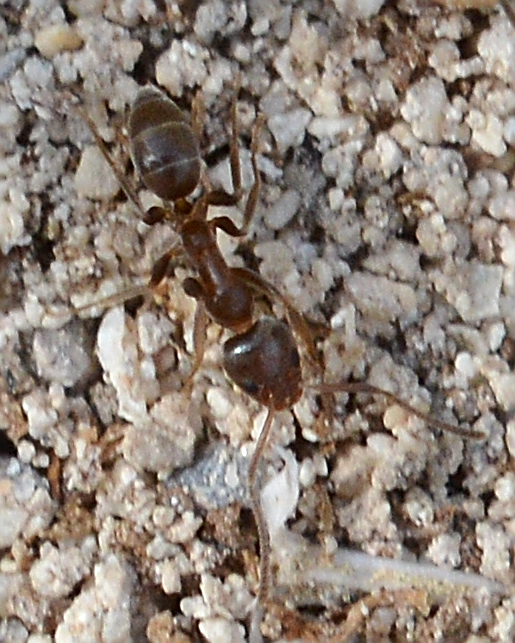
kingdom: Animalia
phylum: Arthropoda
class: Insecta
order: Hymenoptera
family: Formicidae
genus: Linepithema
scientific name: Linepithema humile
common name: Argentine ant
